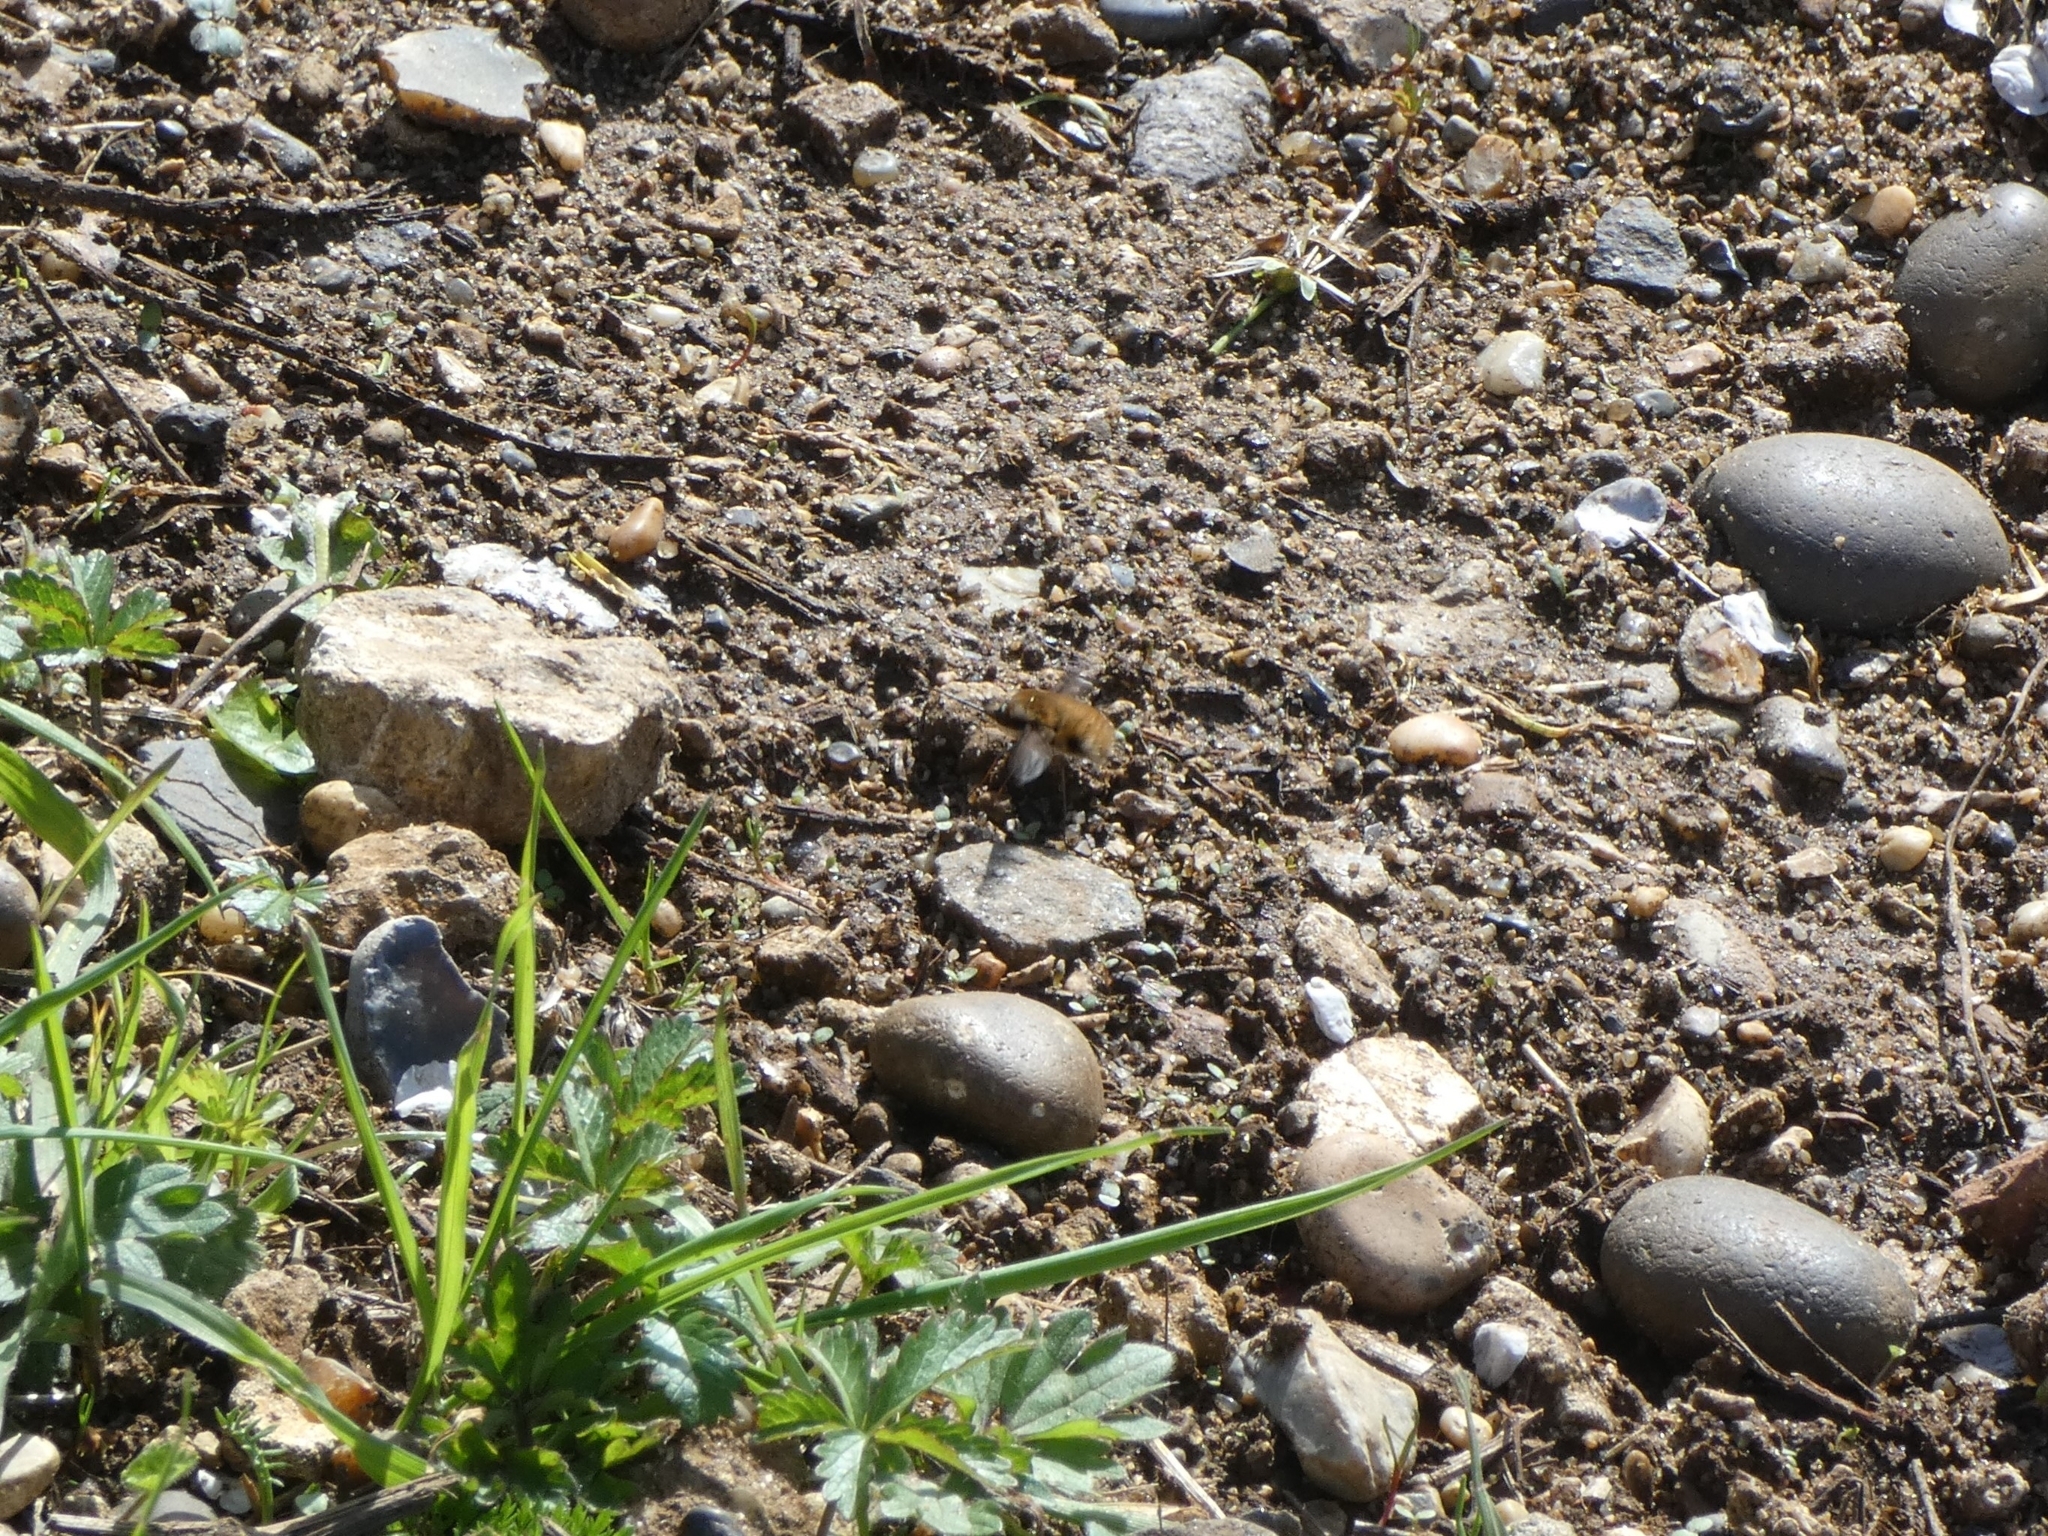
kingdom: Animalia
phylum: Arthropoda
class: Insecta
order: Diptera
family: Bombyliidae
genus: Bombylius
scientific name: Bombylius major
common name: Bee fly
